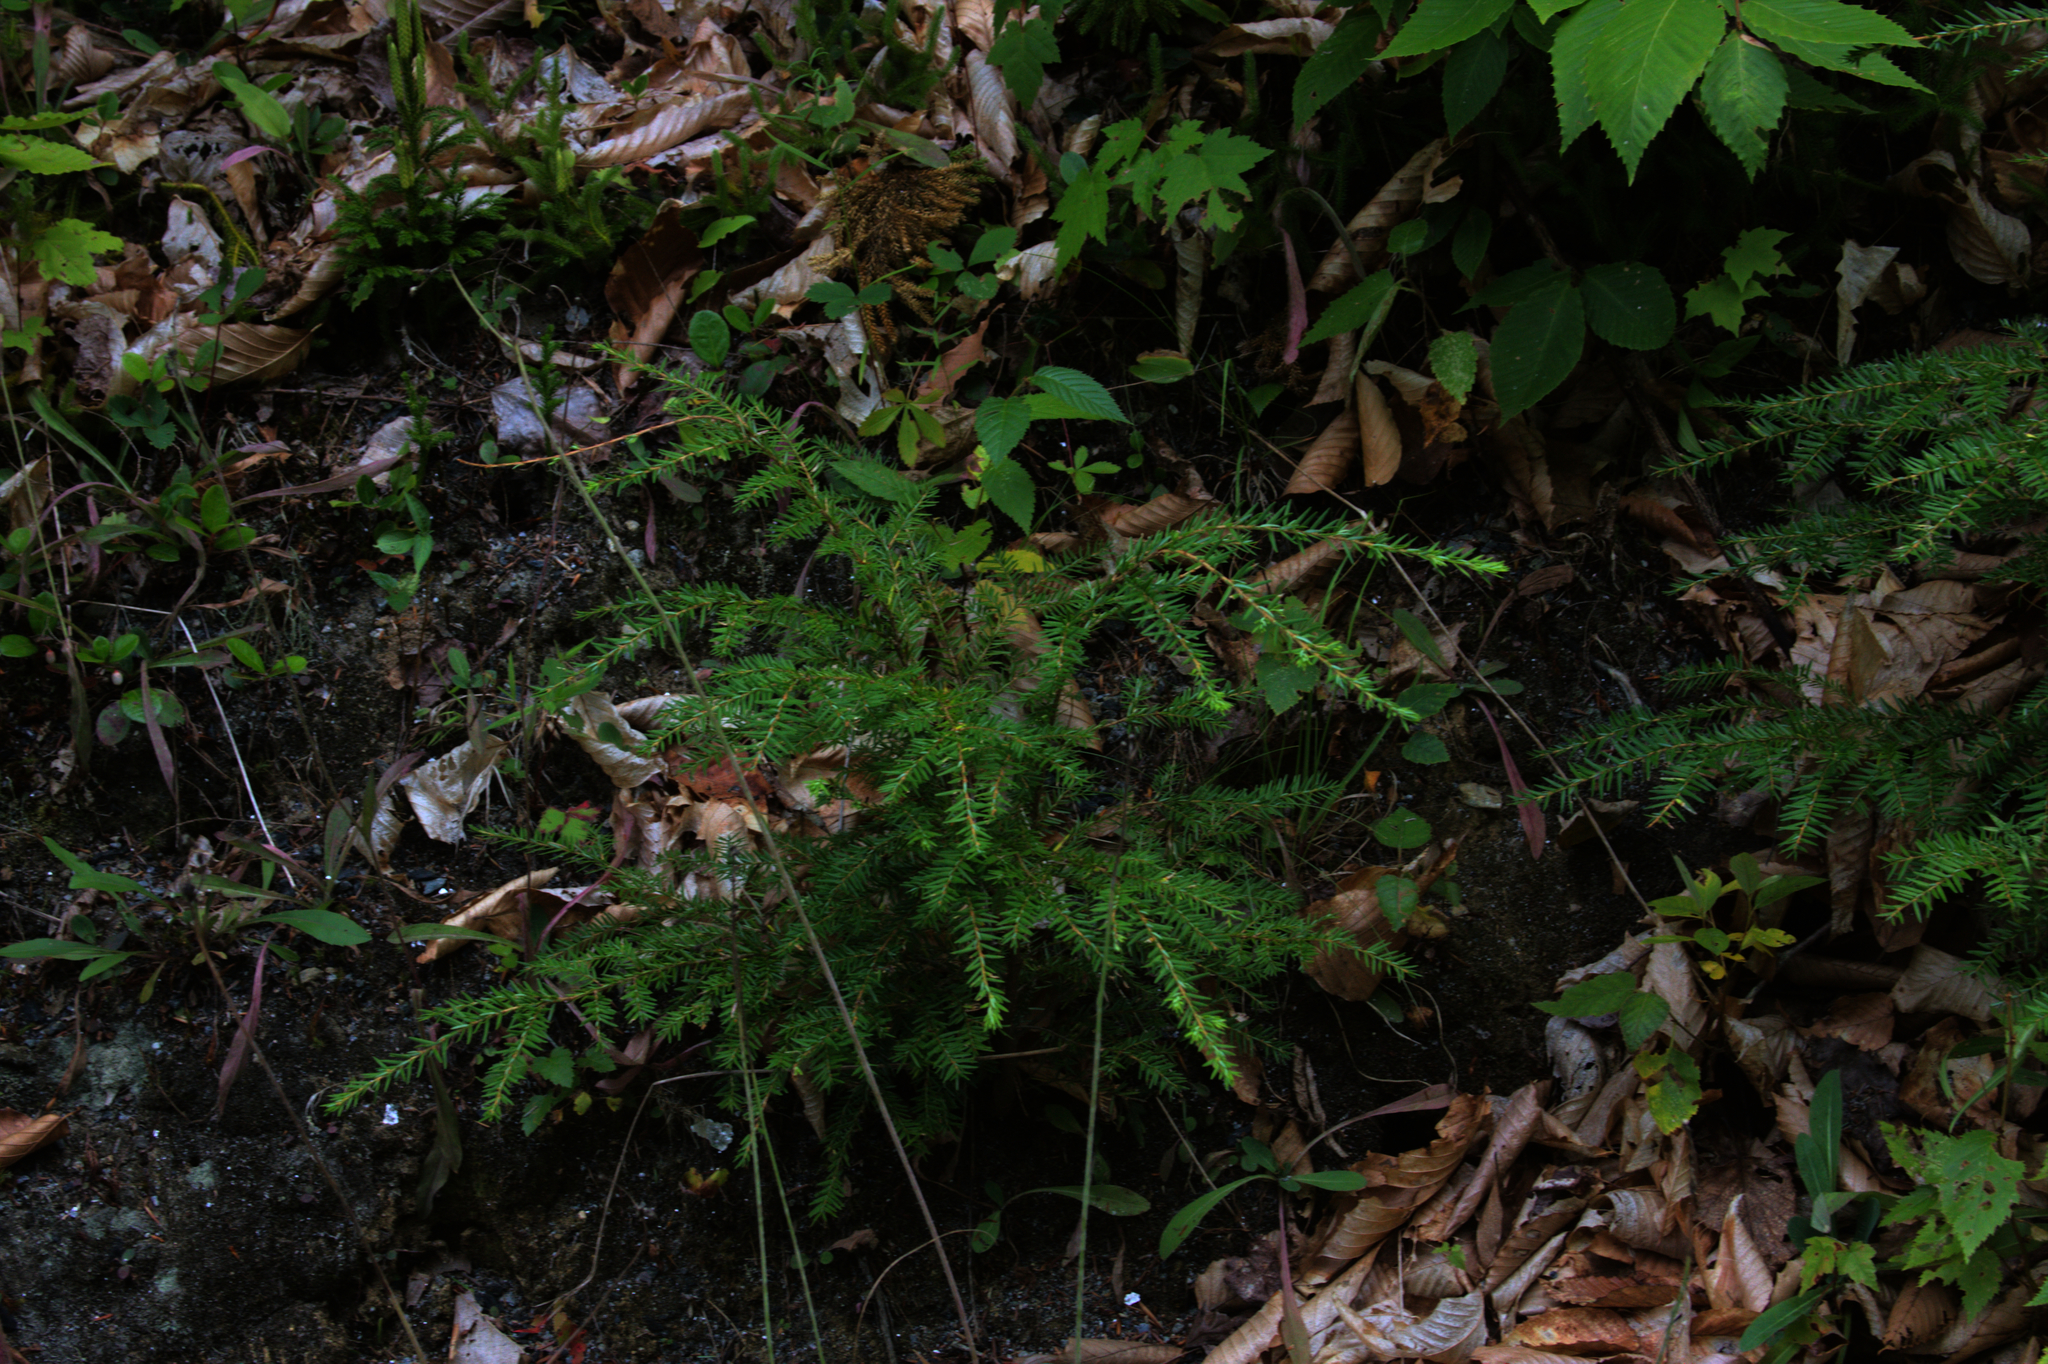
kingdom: Plantae
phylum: Tracheophyta
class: Pinopsida
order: Pinales
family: Pinaceae
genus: Tsuga
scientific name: Tsuga canadensis
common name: Eastern hemlock
